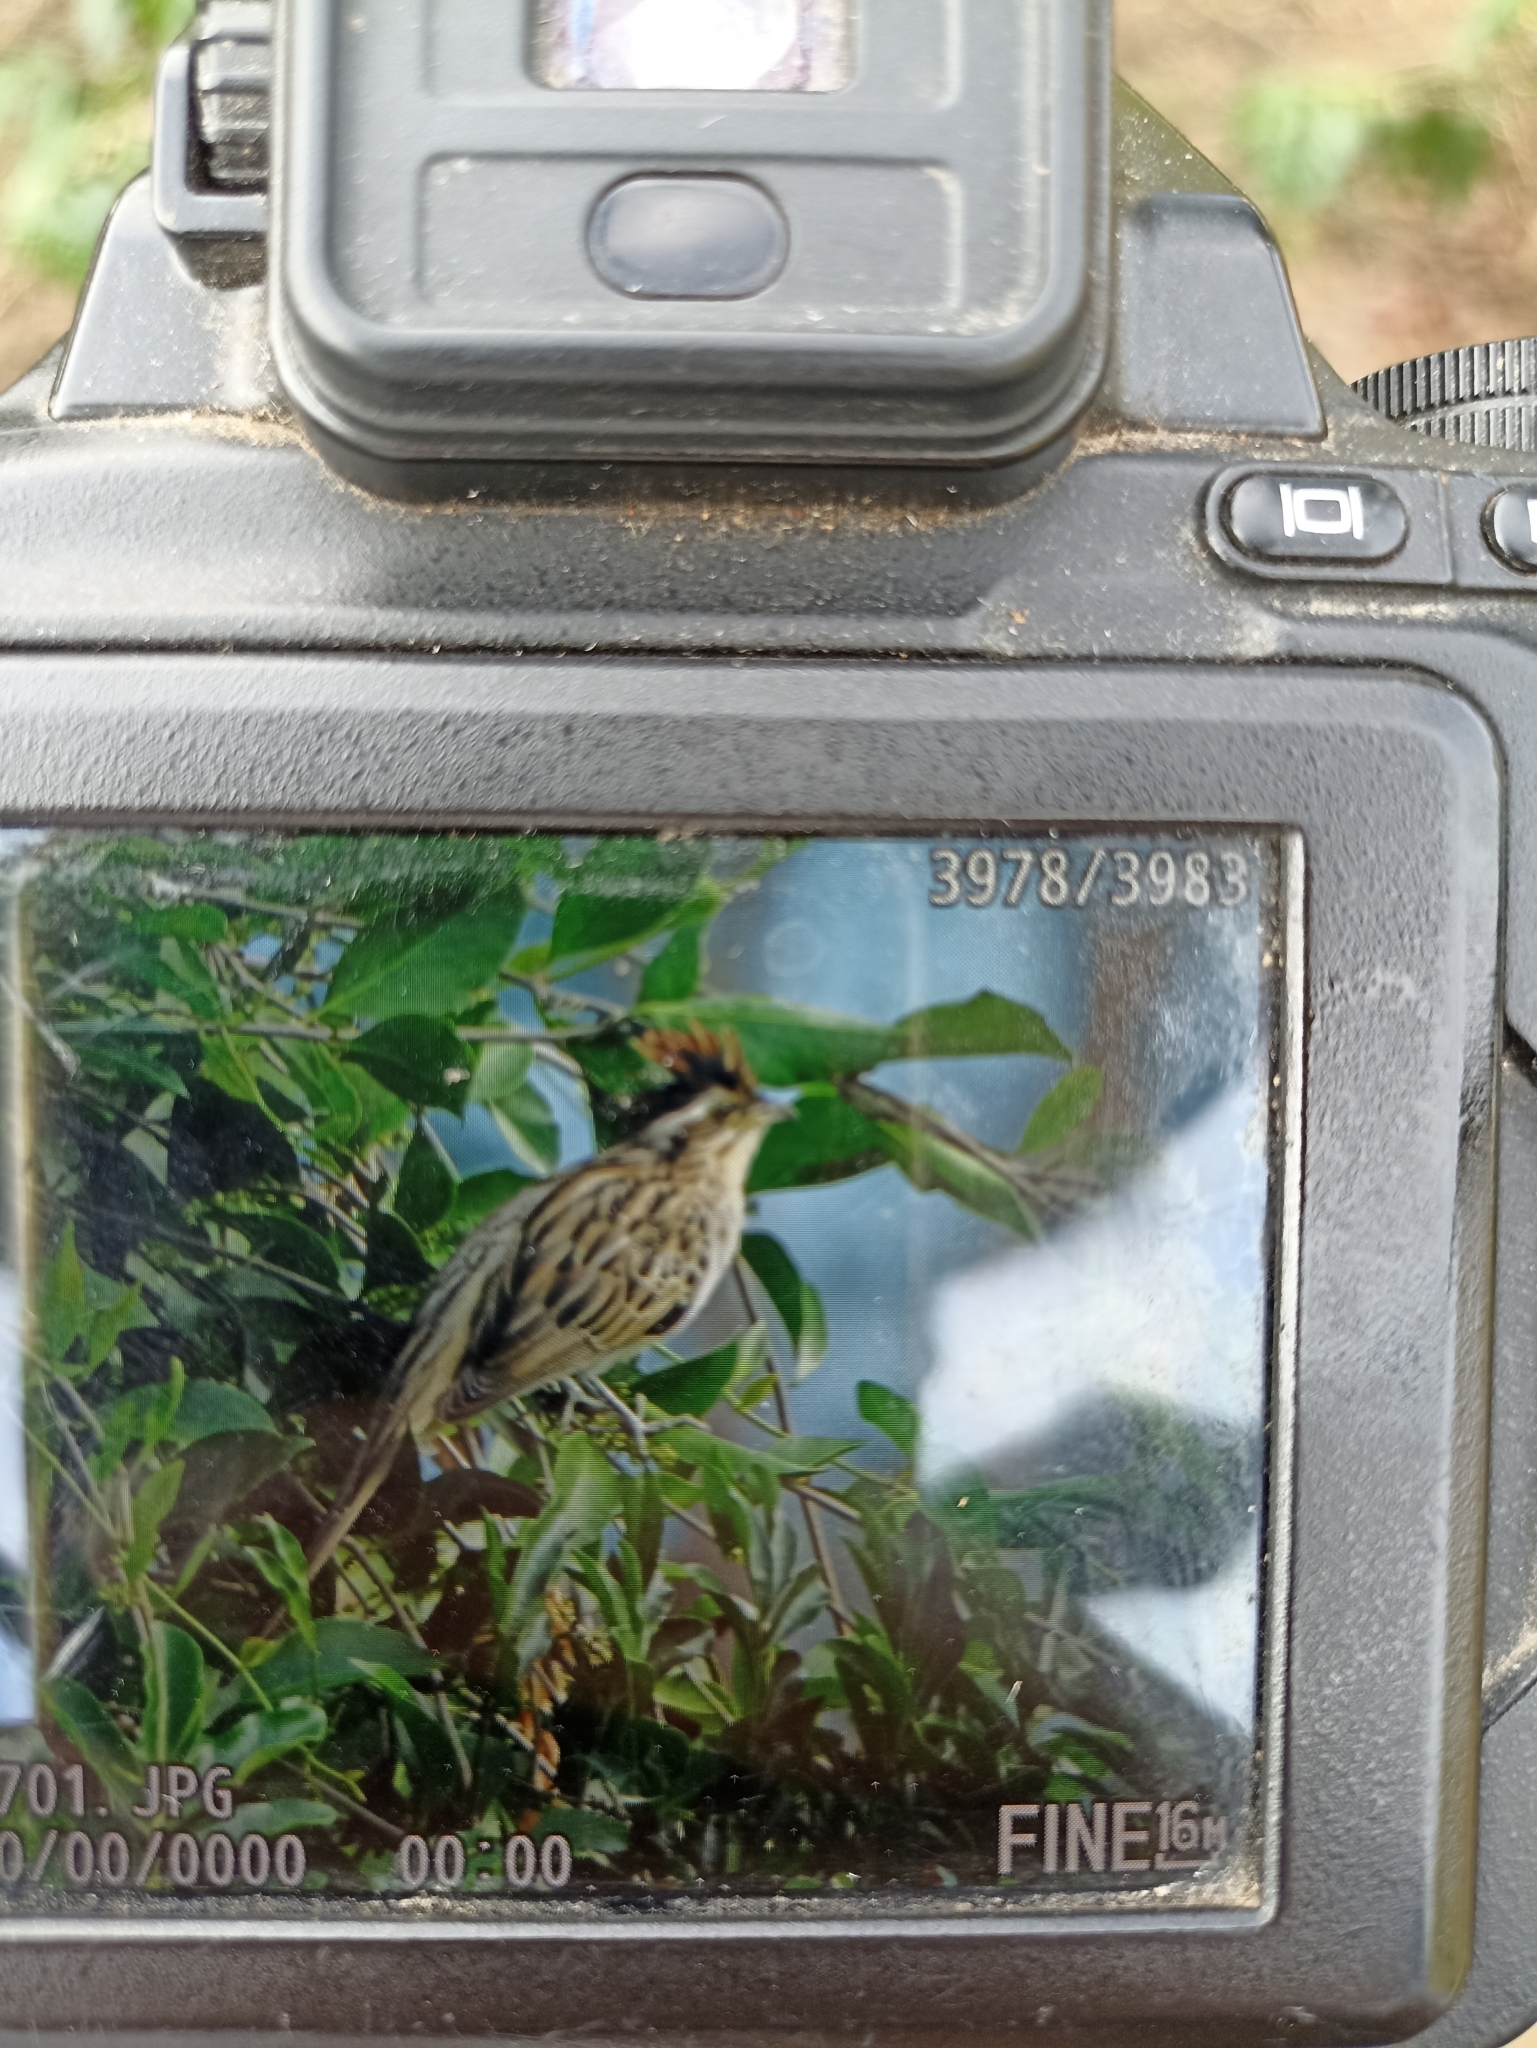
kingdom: Animalia
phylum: Chordata
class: Aves
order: Cuculiformes
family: Cuculidae
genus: Tapera
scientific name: Tapera naevia
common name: Striped cuckoo
